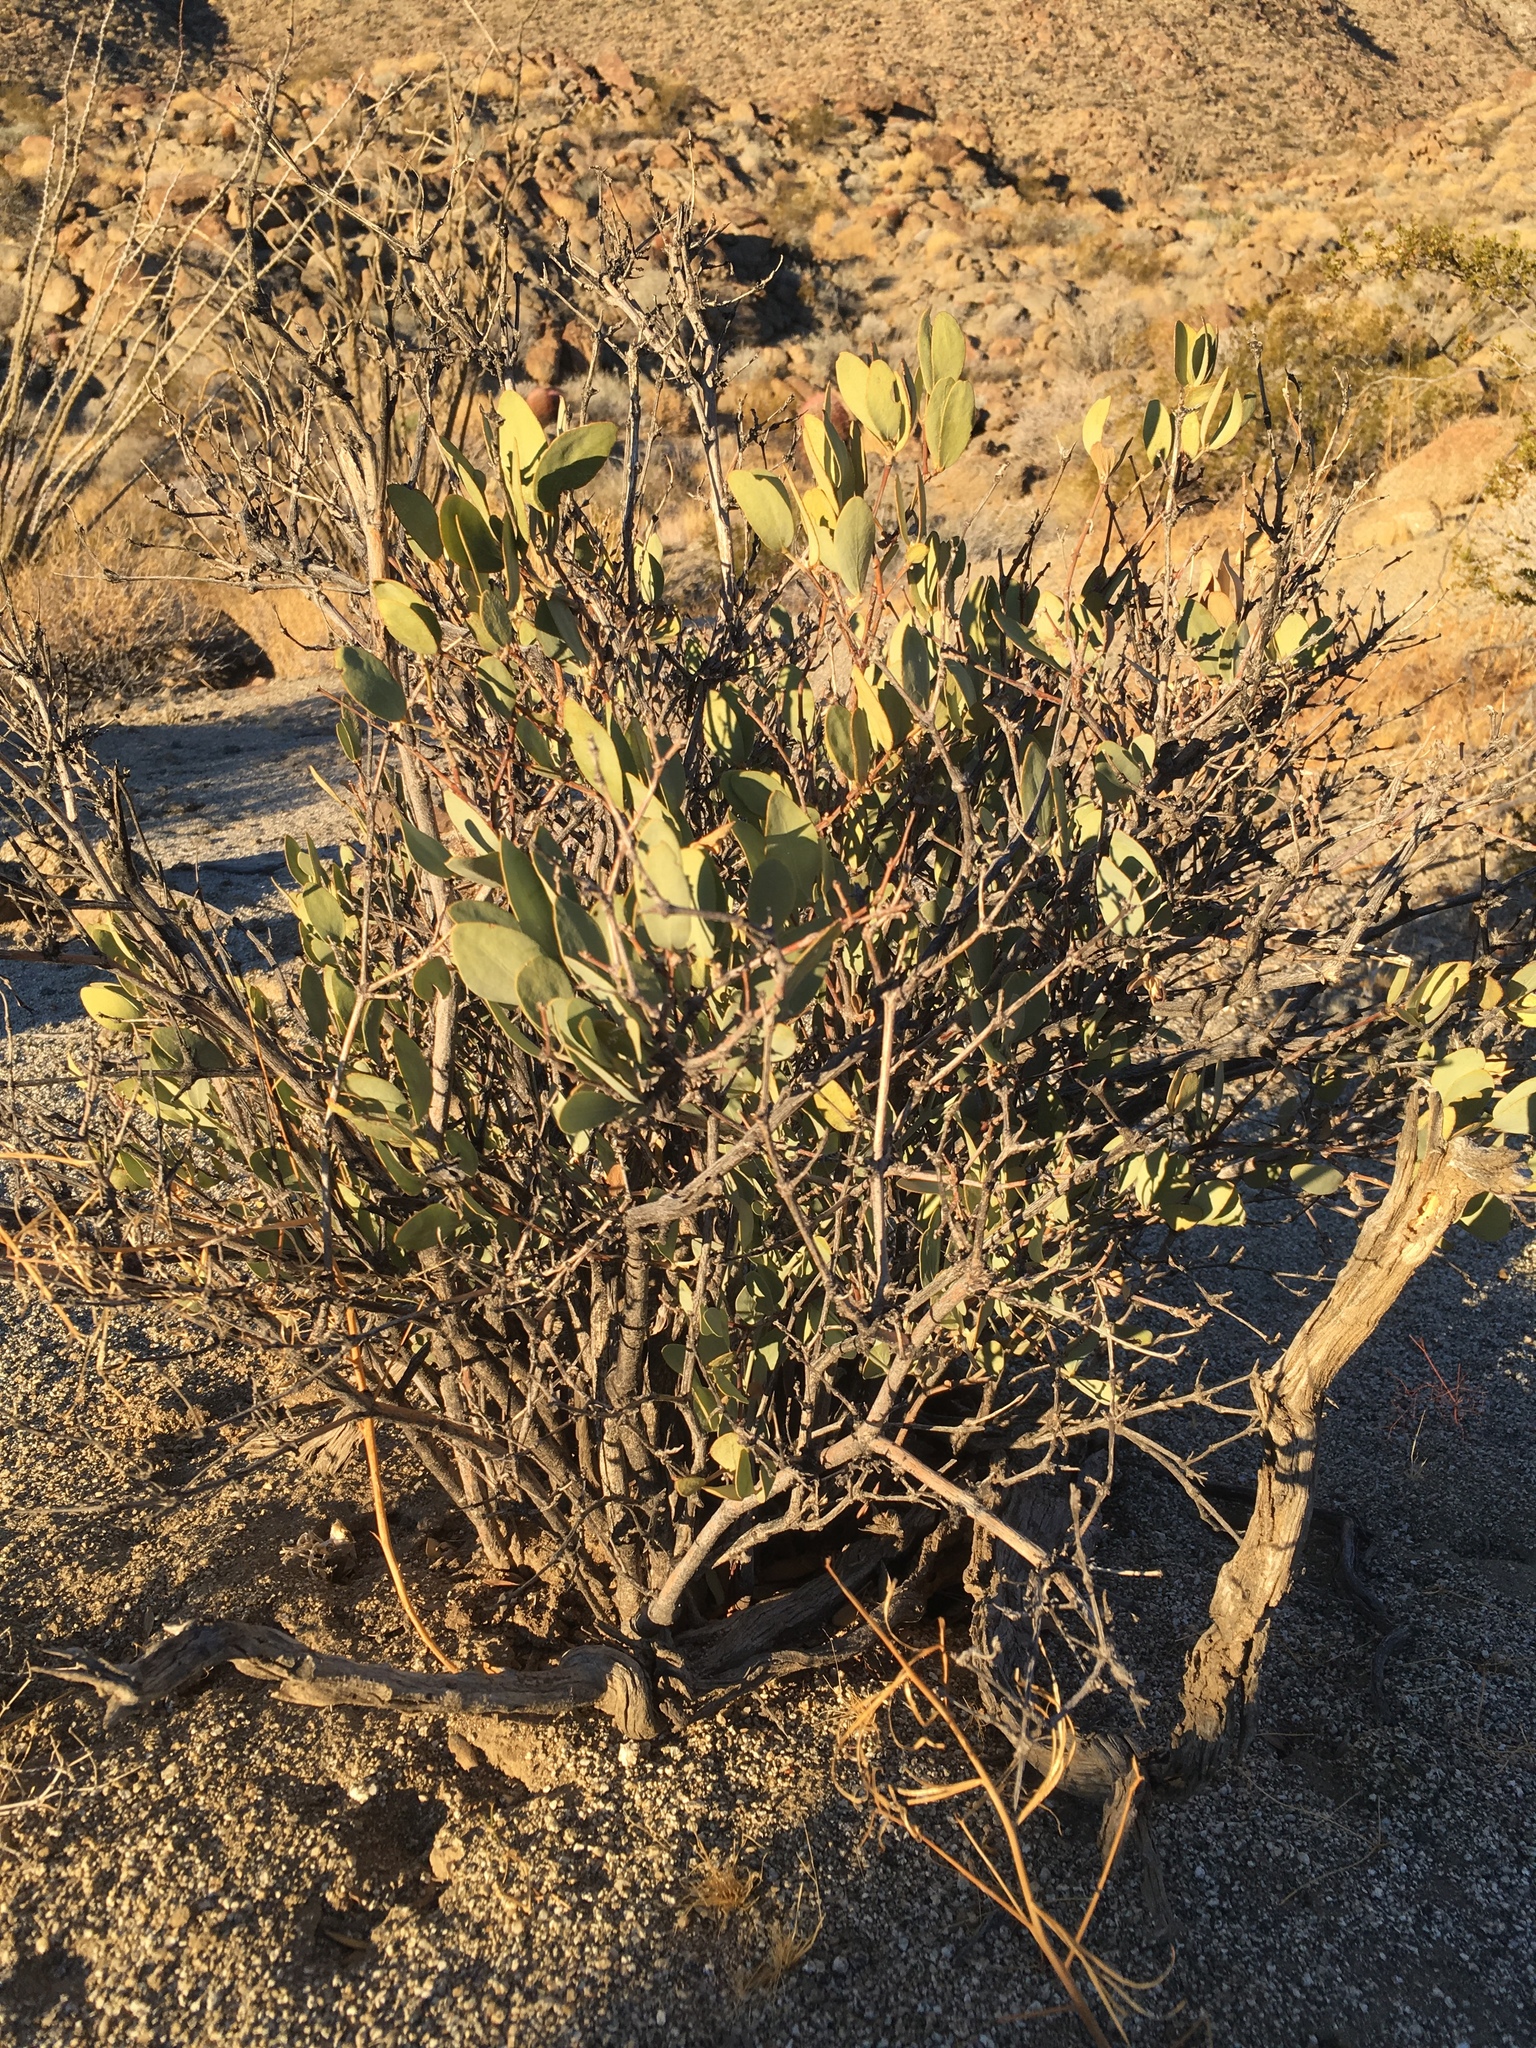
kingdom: Plantae
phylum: Tracheophyta
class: Magnoliopsida
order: Caryophyllales
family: Simmondsiaceae
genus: Simmondsia
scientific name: Simmondsia chinensis
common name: Jojoba
